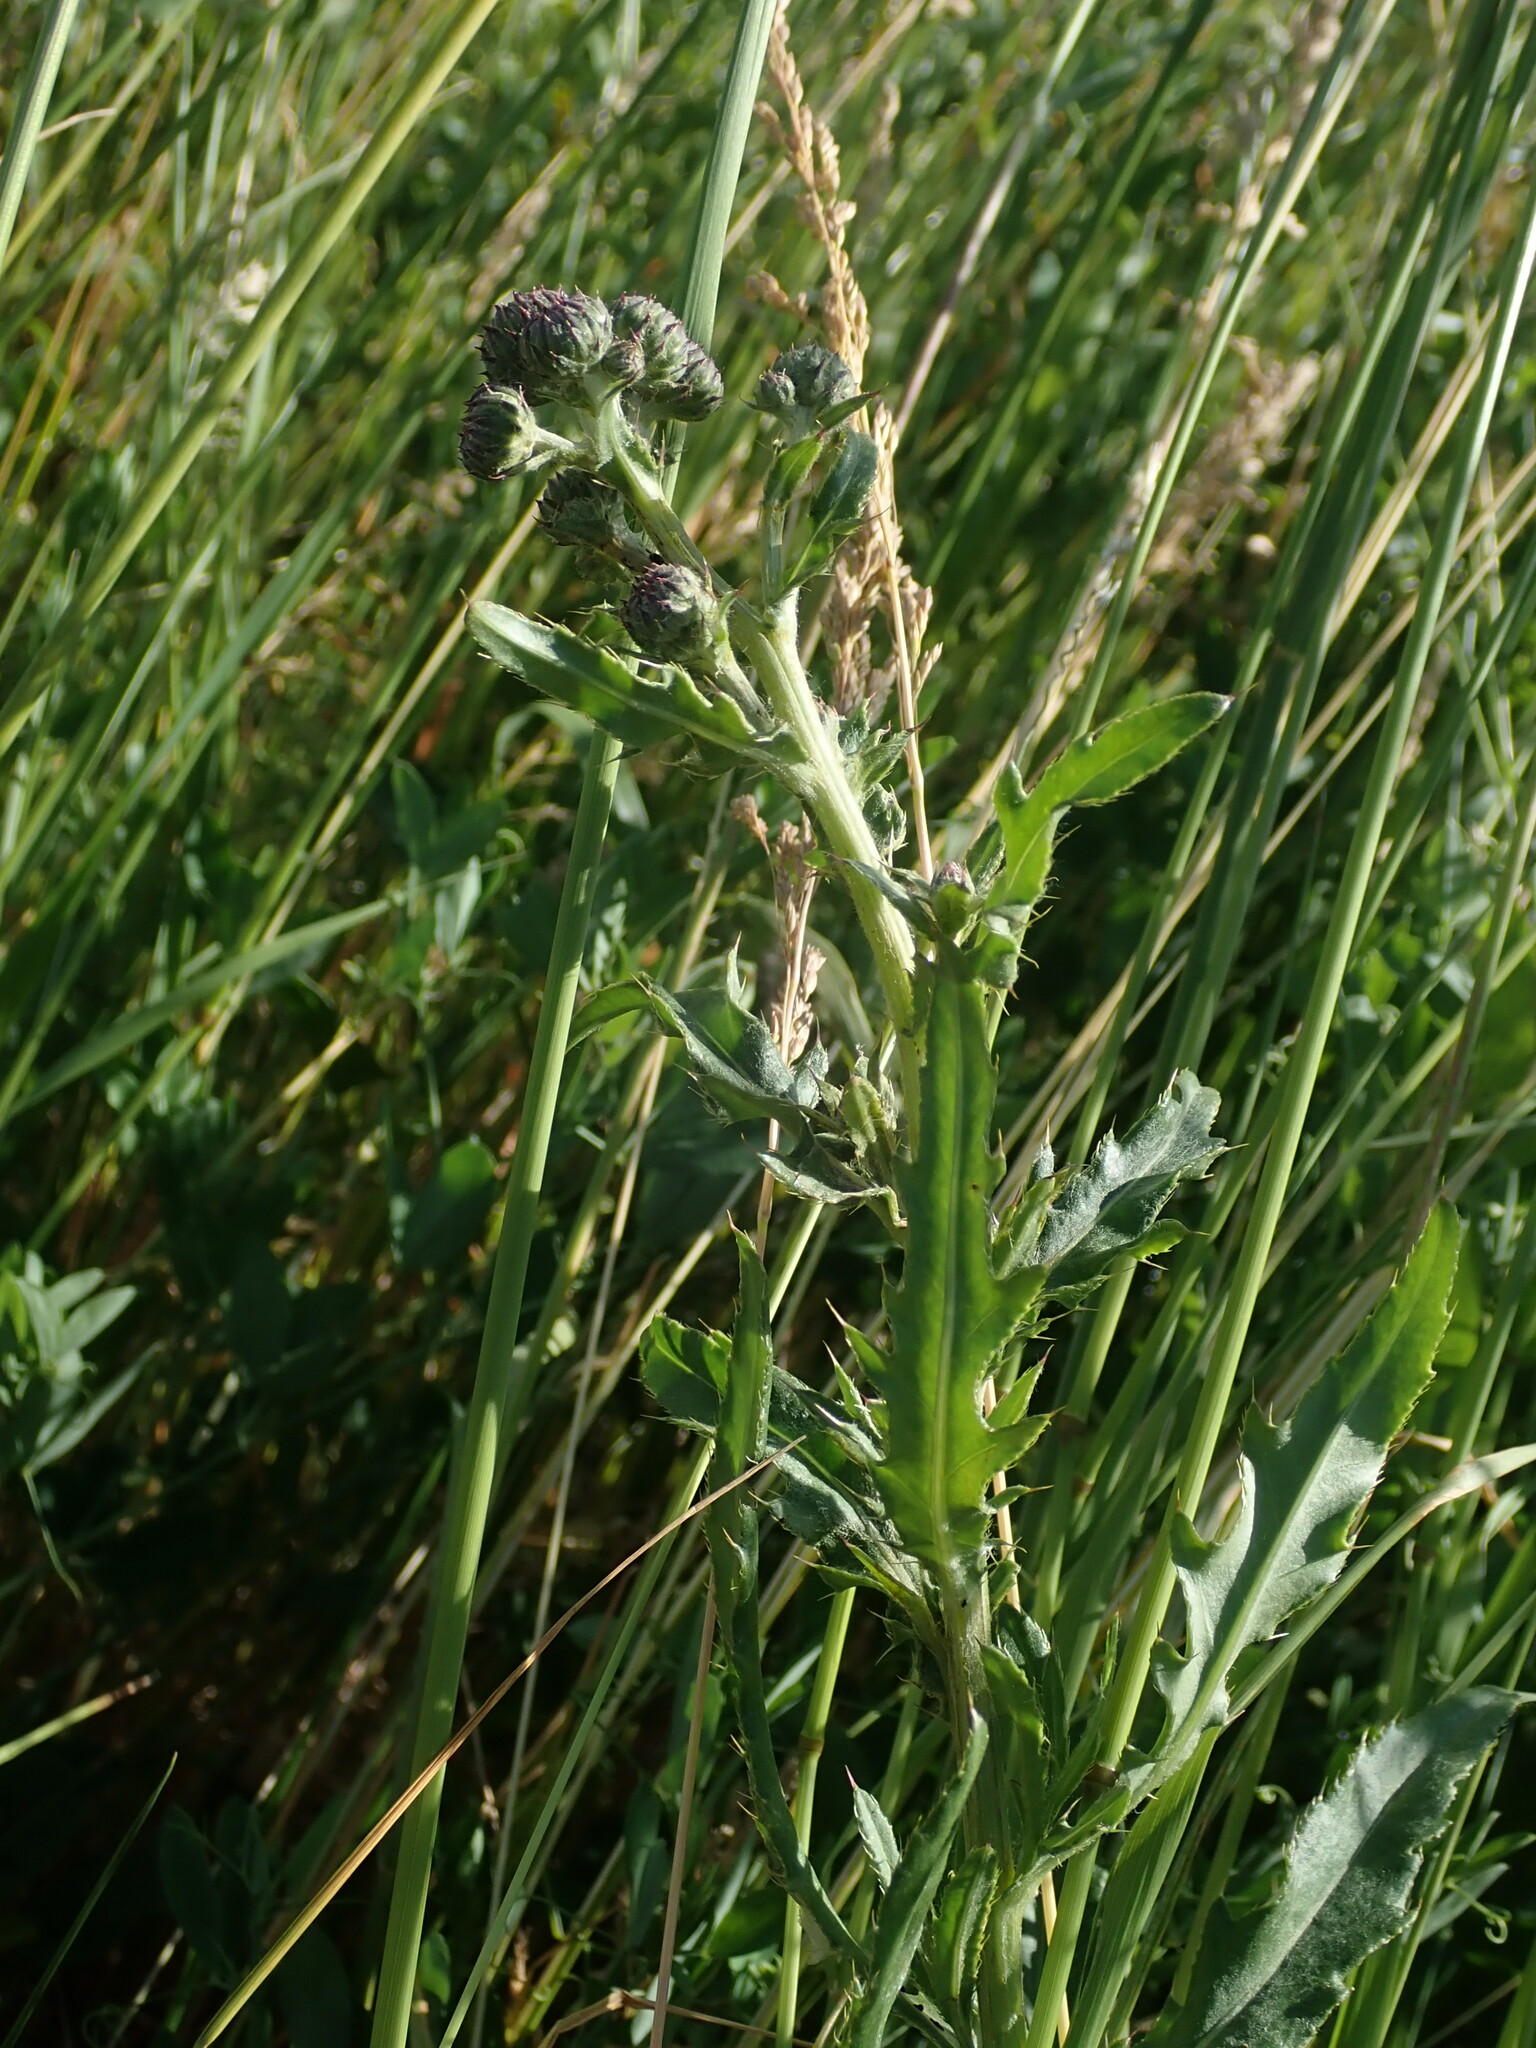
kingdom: Plantae
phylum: Tracheophyta
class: Magnoliopsida
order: Asterales
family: Asteraceae
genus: Cirsium
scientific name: Cirsium arvense
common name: Creeping thistle
